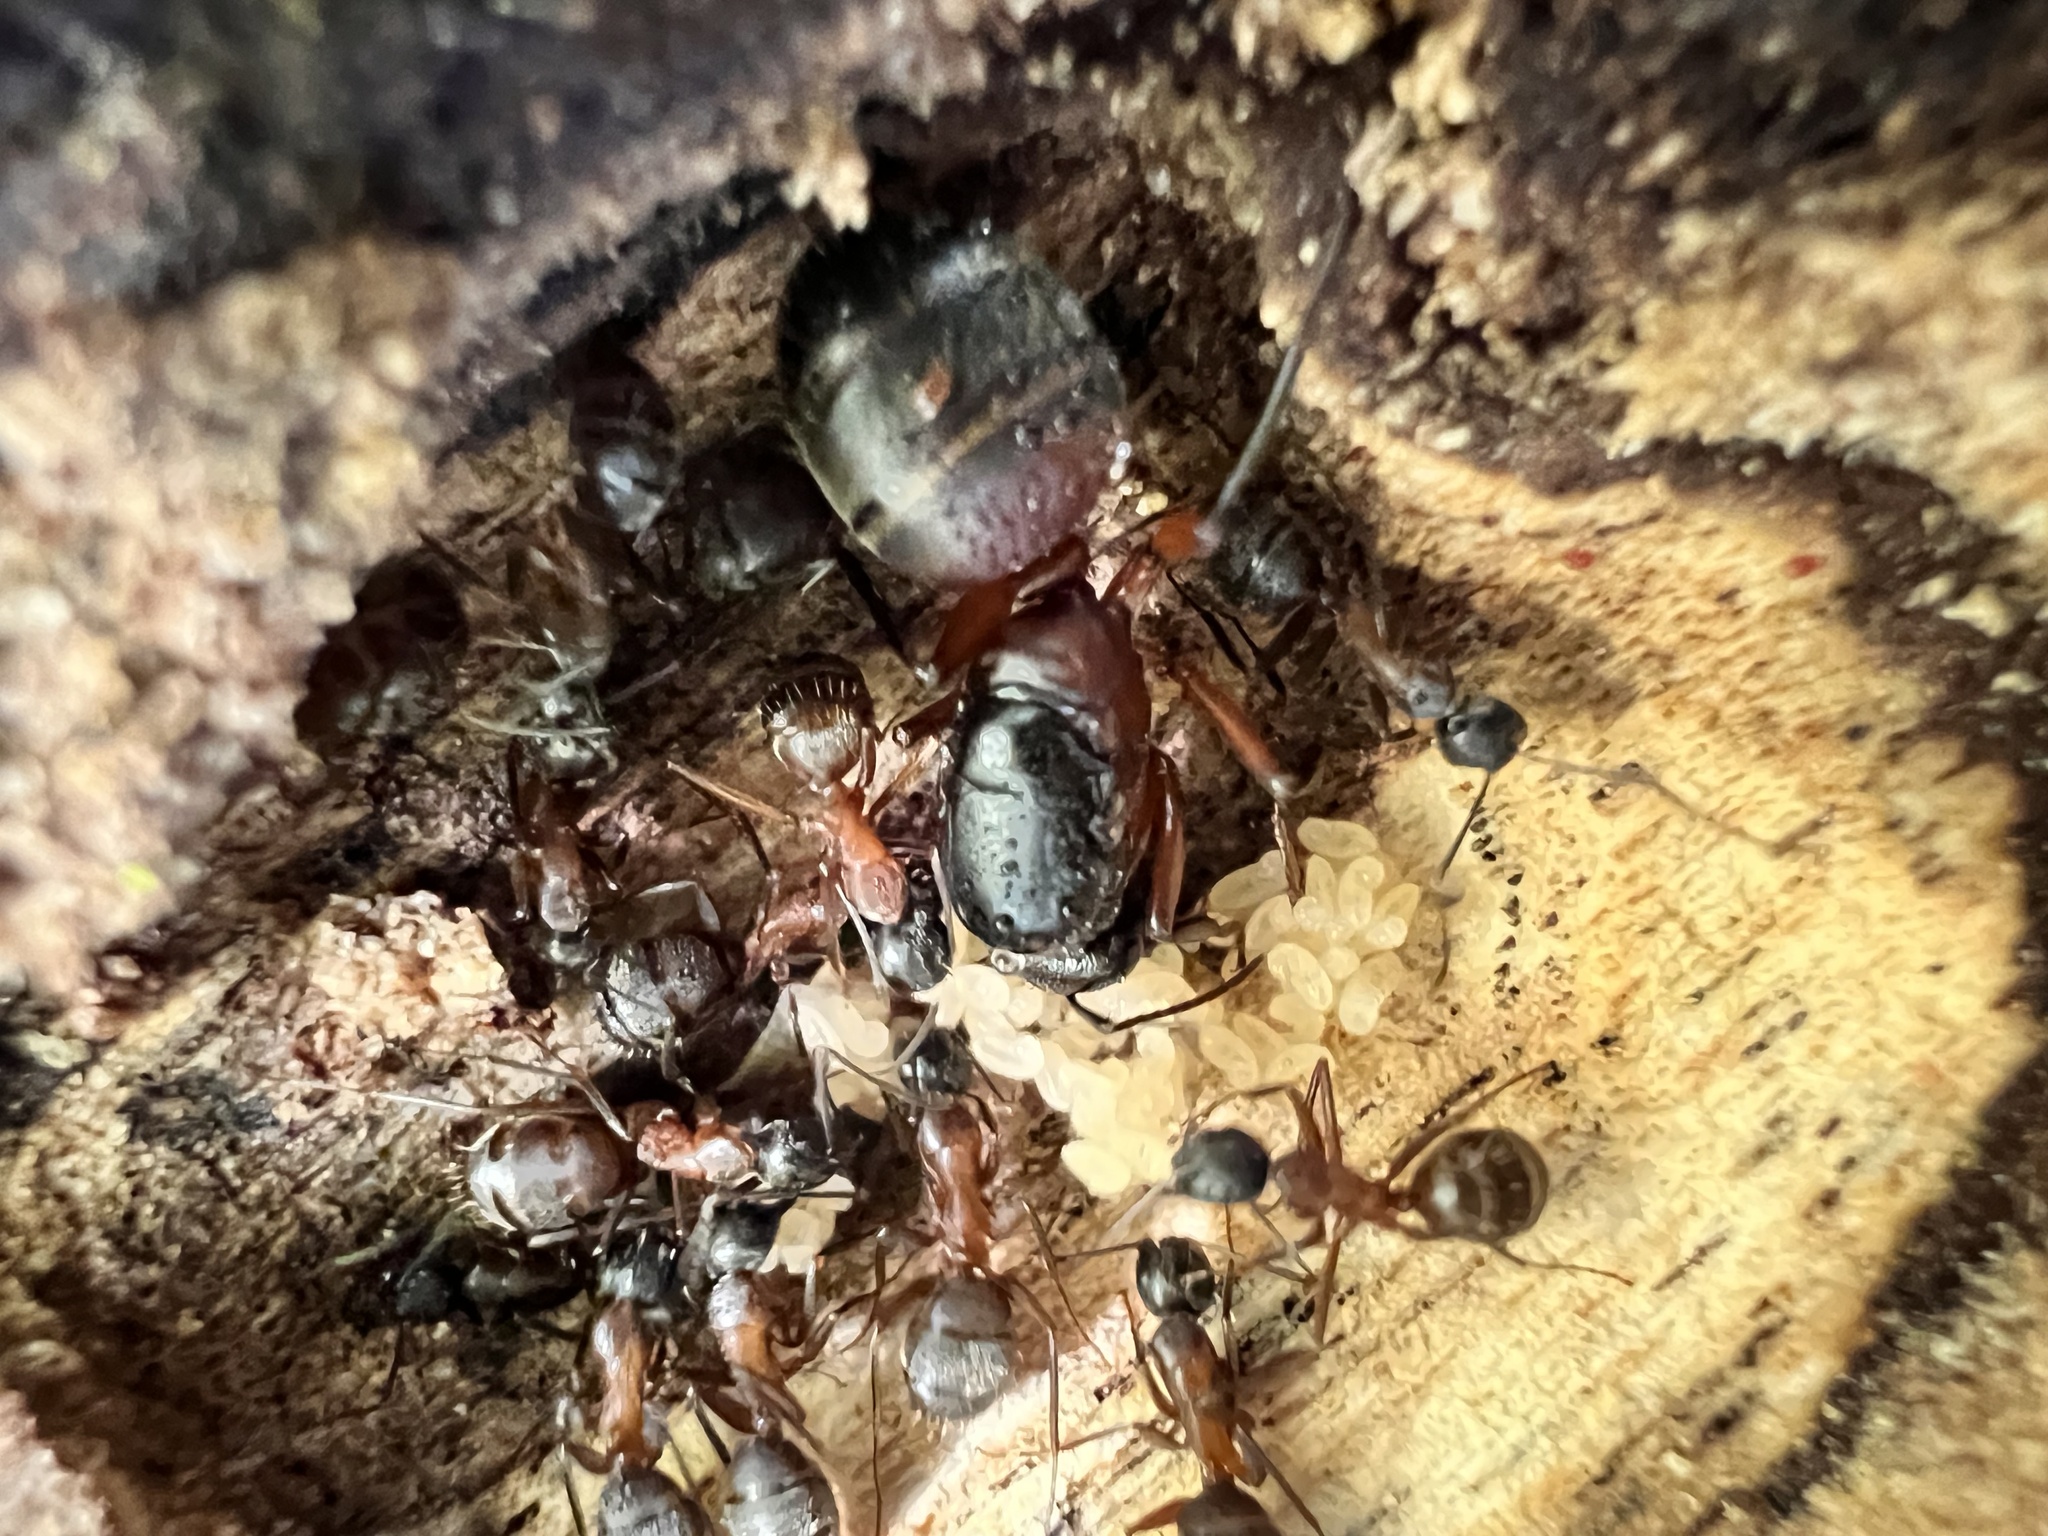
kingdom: Animalia
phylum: Arthropoda
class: Insecta
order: Hymenoptera
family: Formicidae
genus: Camponotus
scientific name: Camponotus chromaiodes
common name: Red carpenter ant
